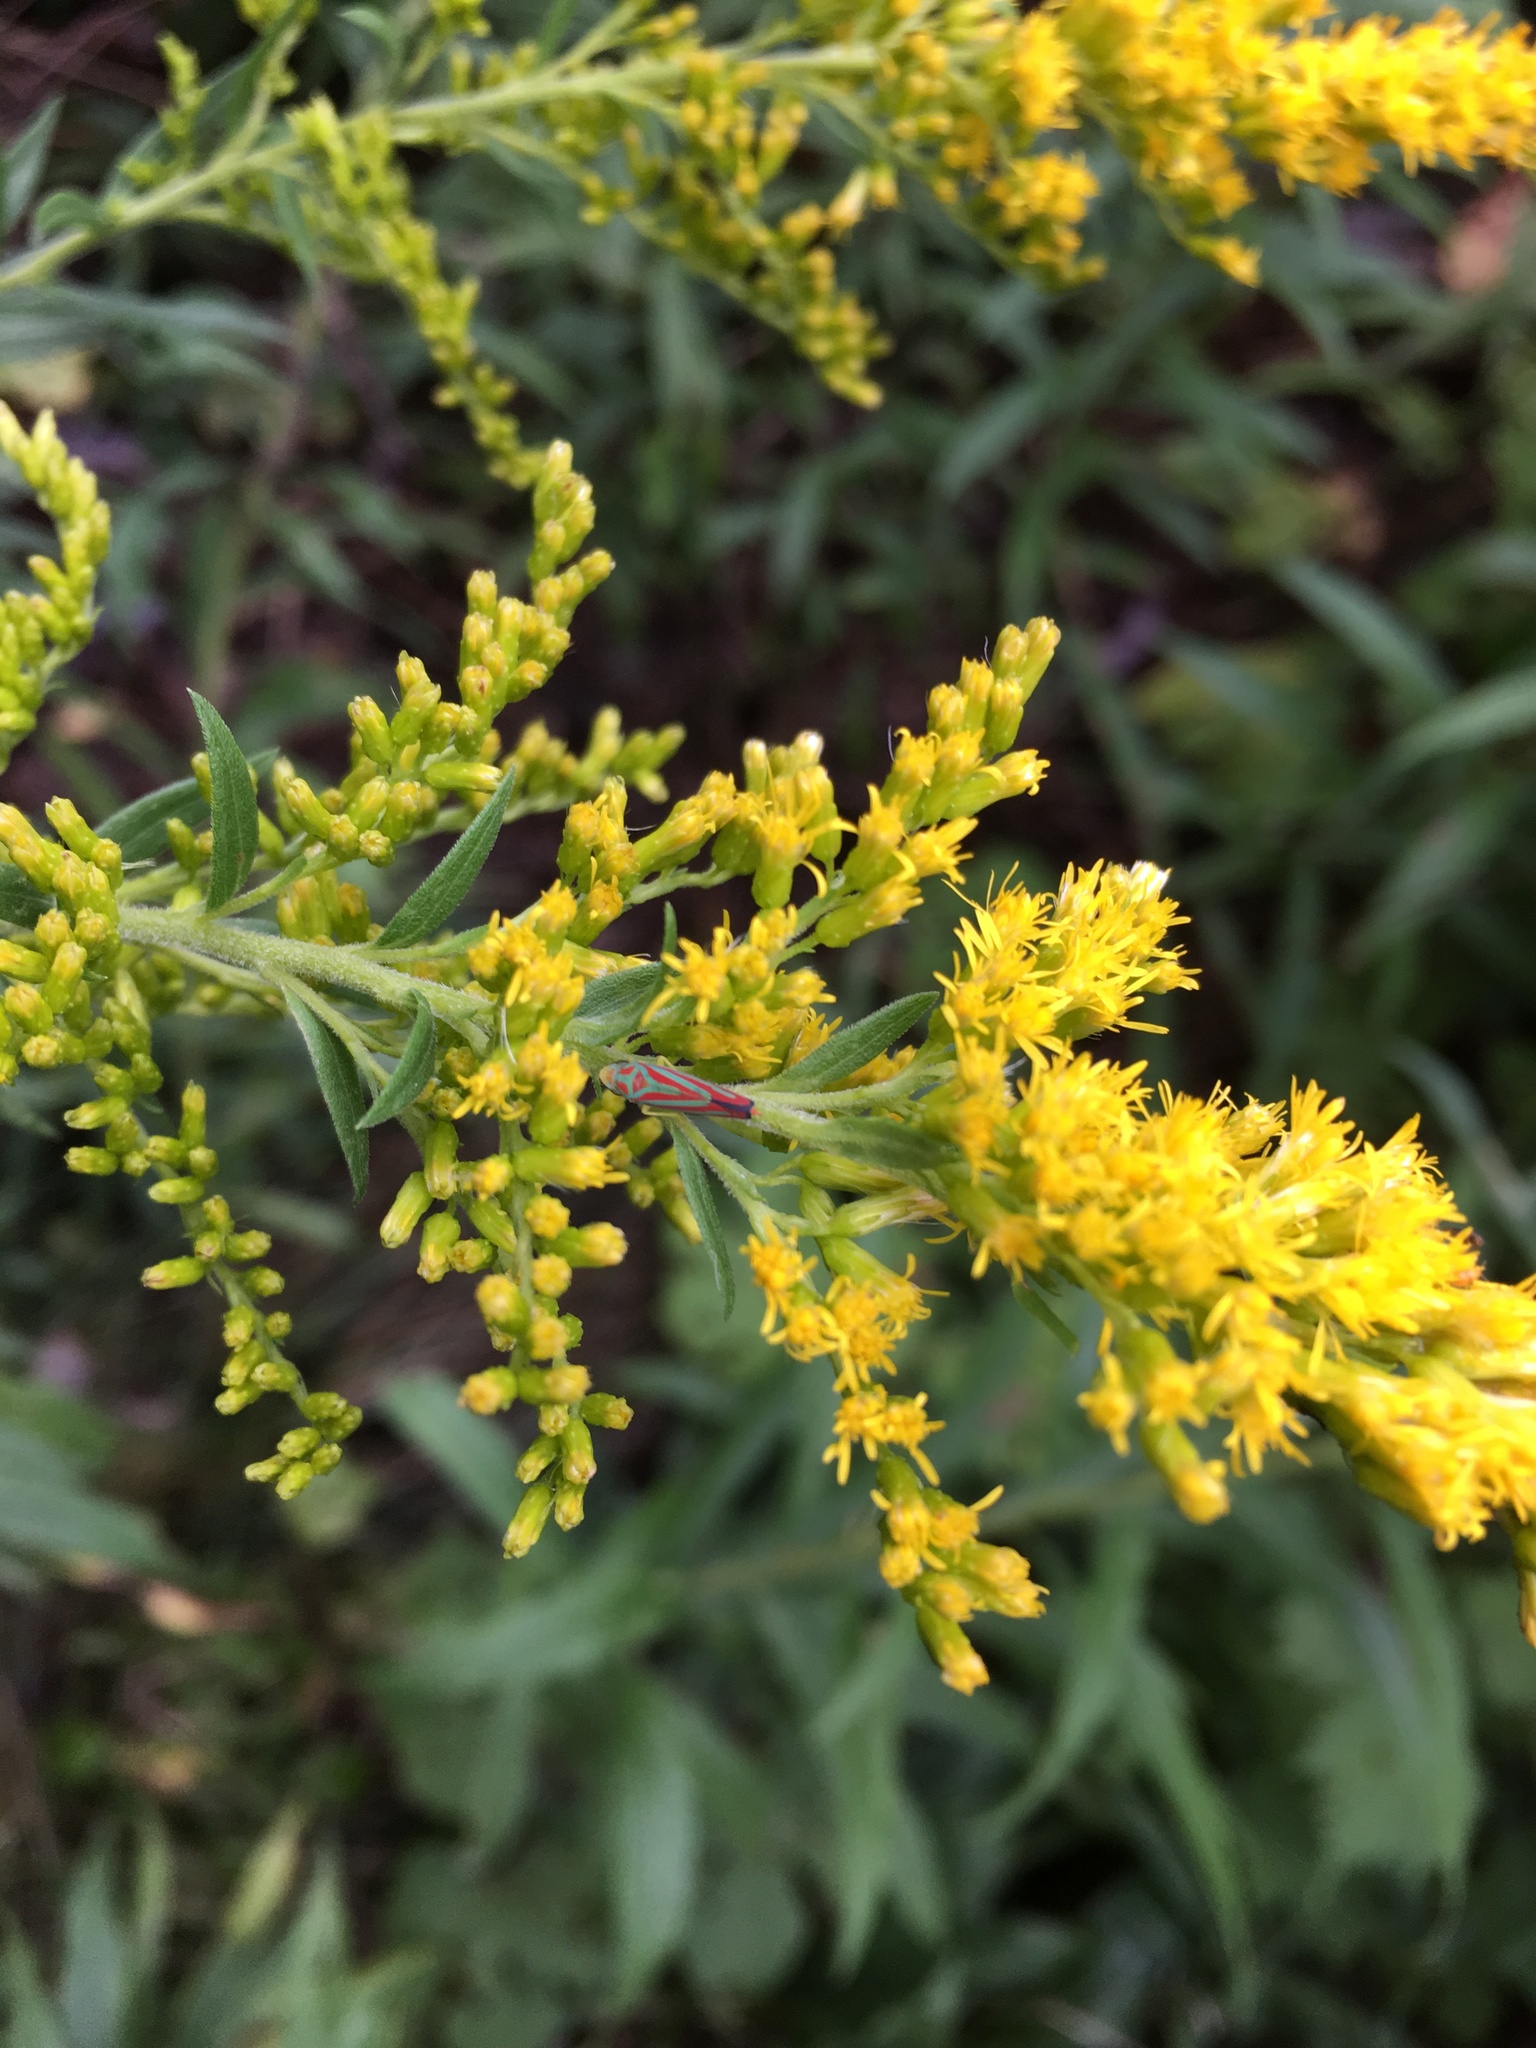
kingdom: Animalia
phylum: Arthropoda
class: Insecta
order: Hemiptera
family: Cicadellidae
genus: Graphocephala
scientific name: Graphocephala coccinea
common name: Candy-striped leafhopper
